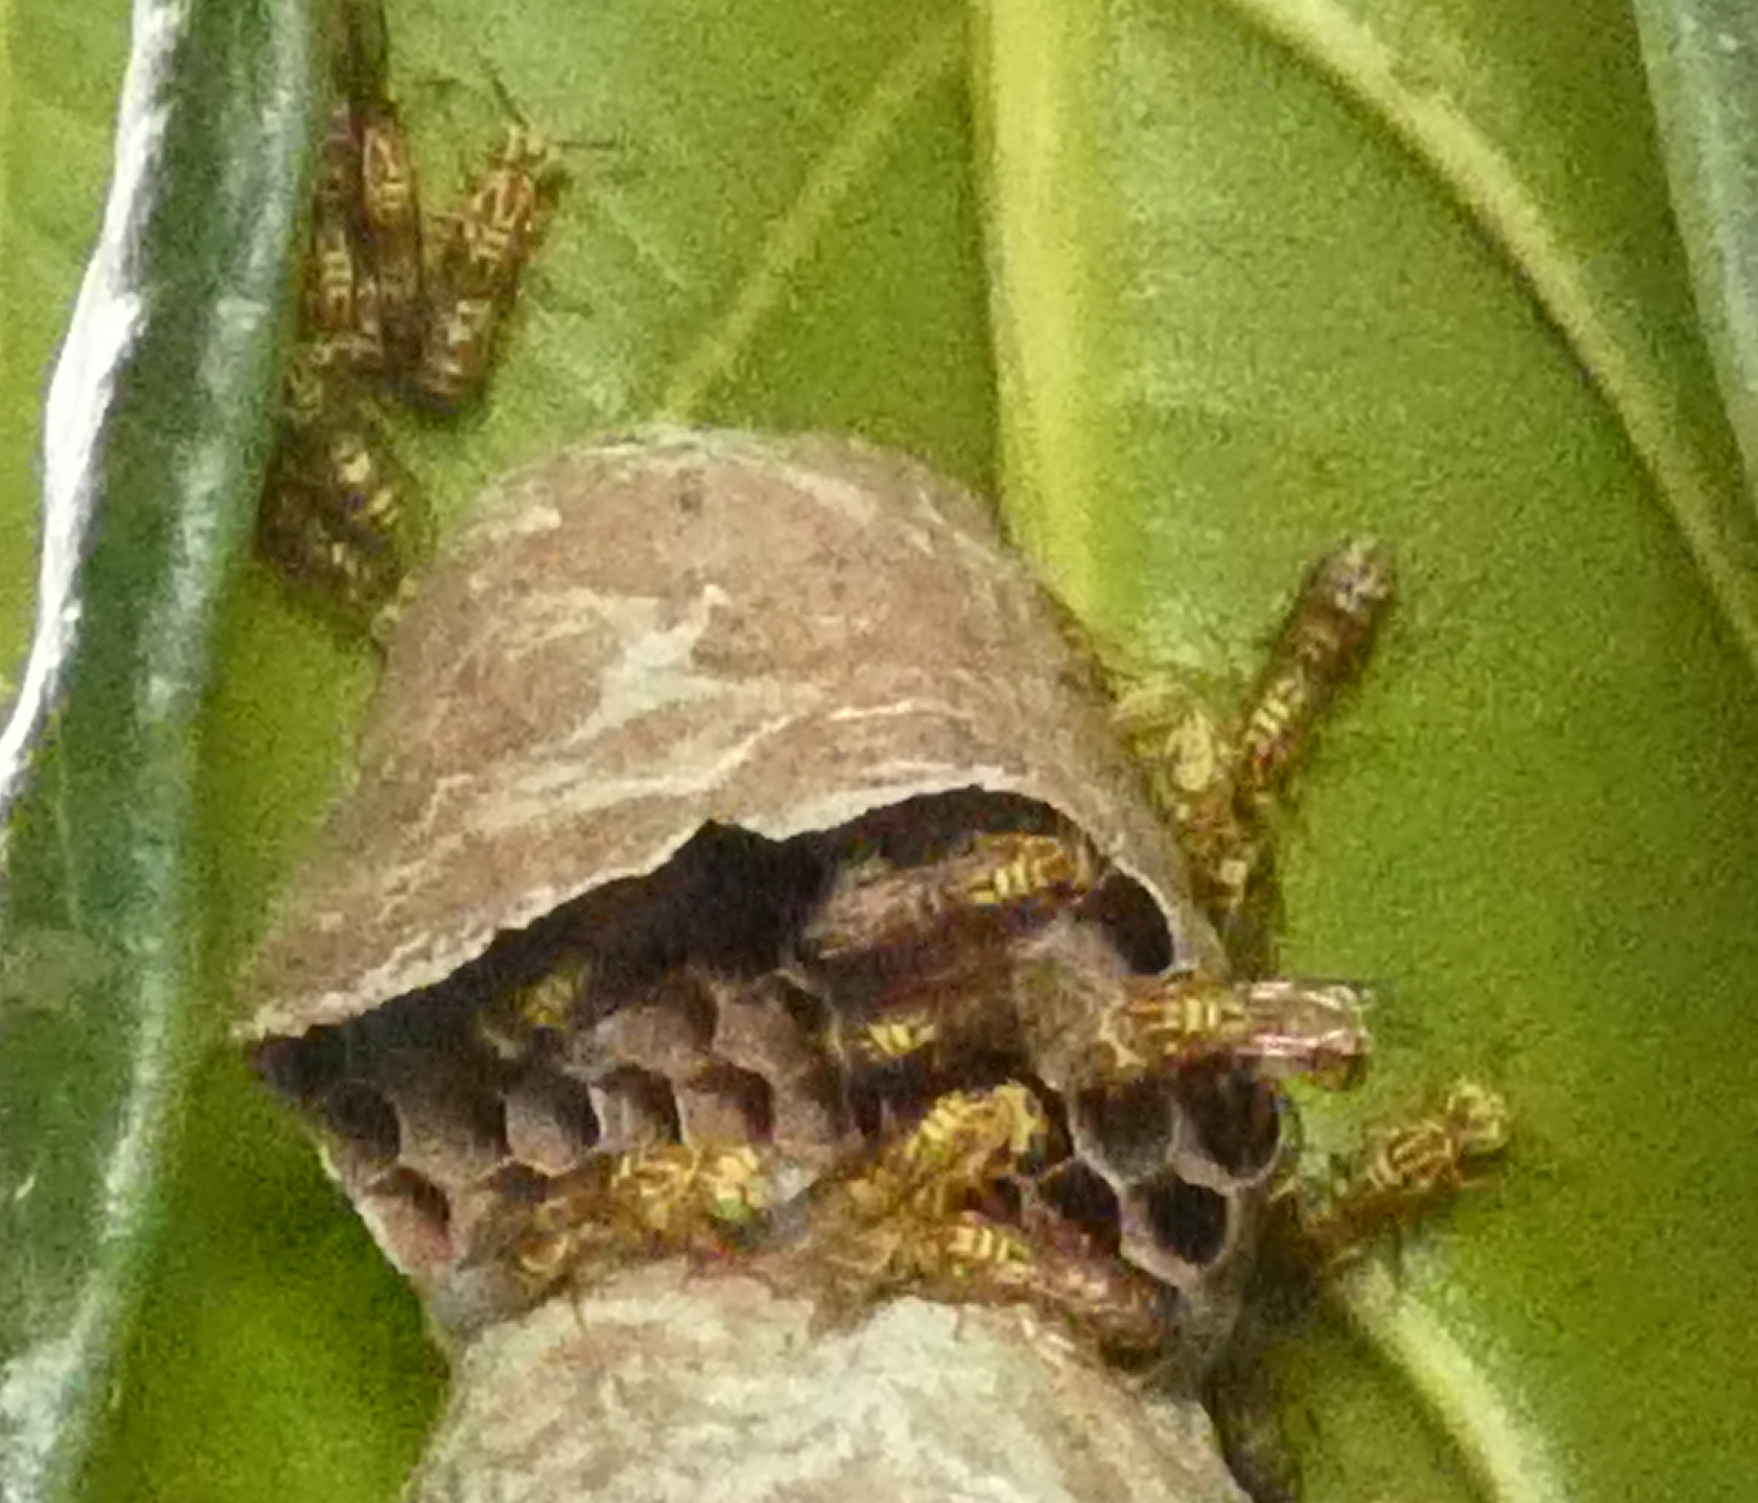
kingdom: Animalia
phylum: Arthropoda
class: Insecta
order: Hymenoptera
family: Vespidae
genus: Protopolybia
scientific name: Protopolybia potiguara
